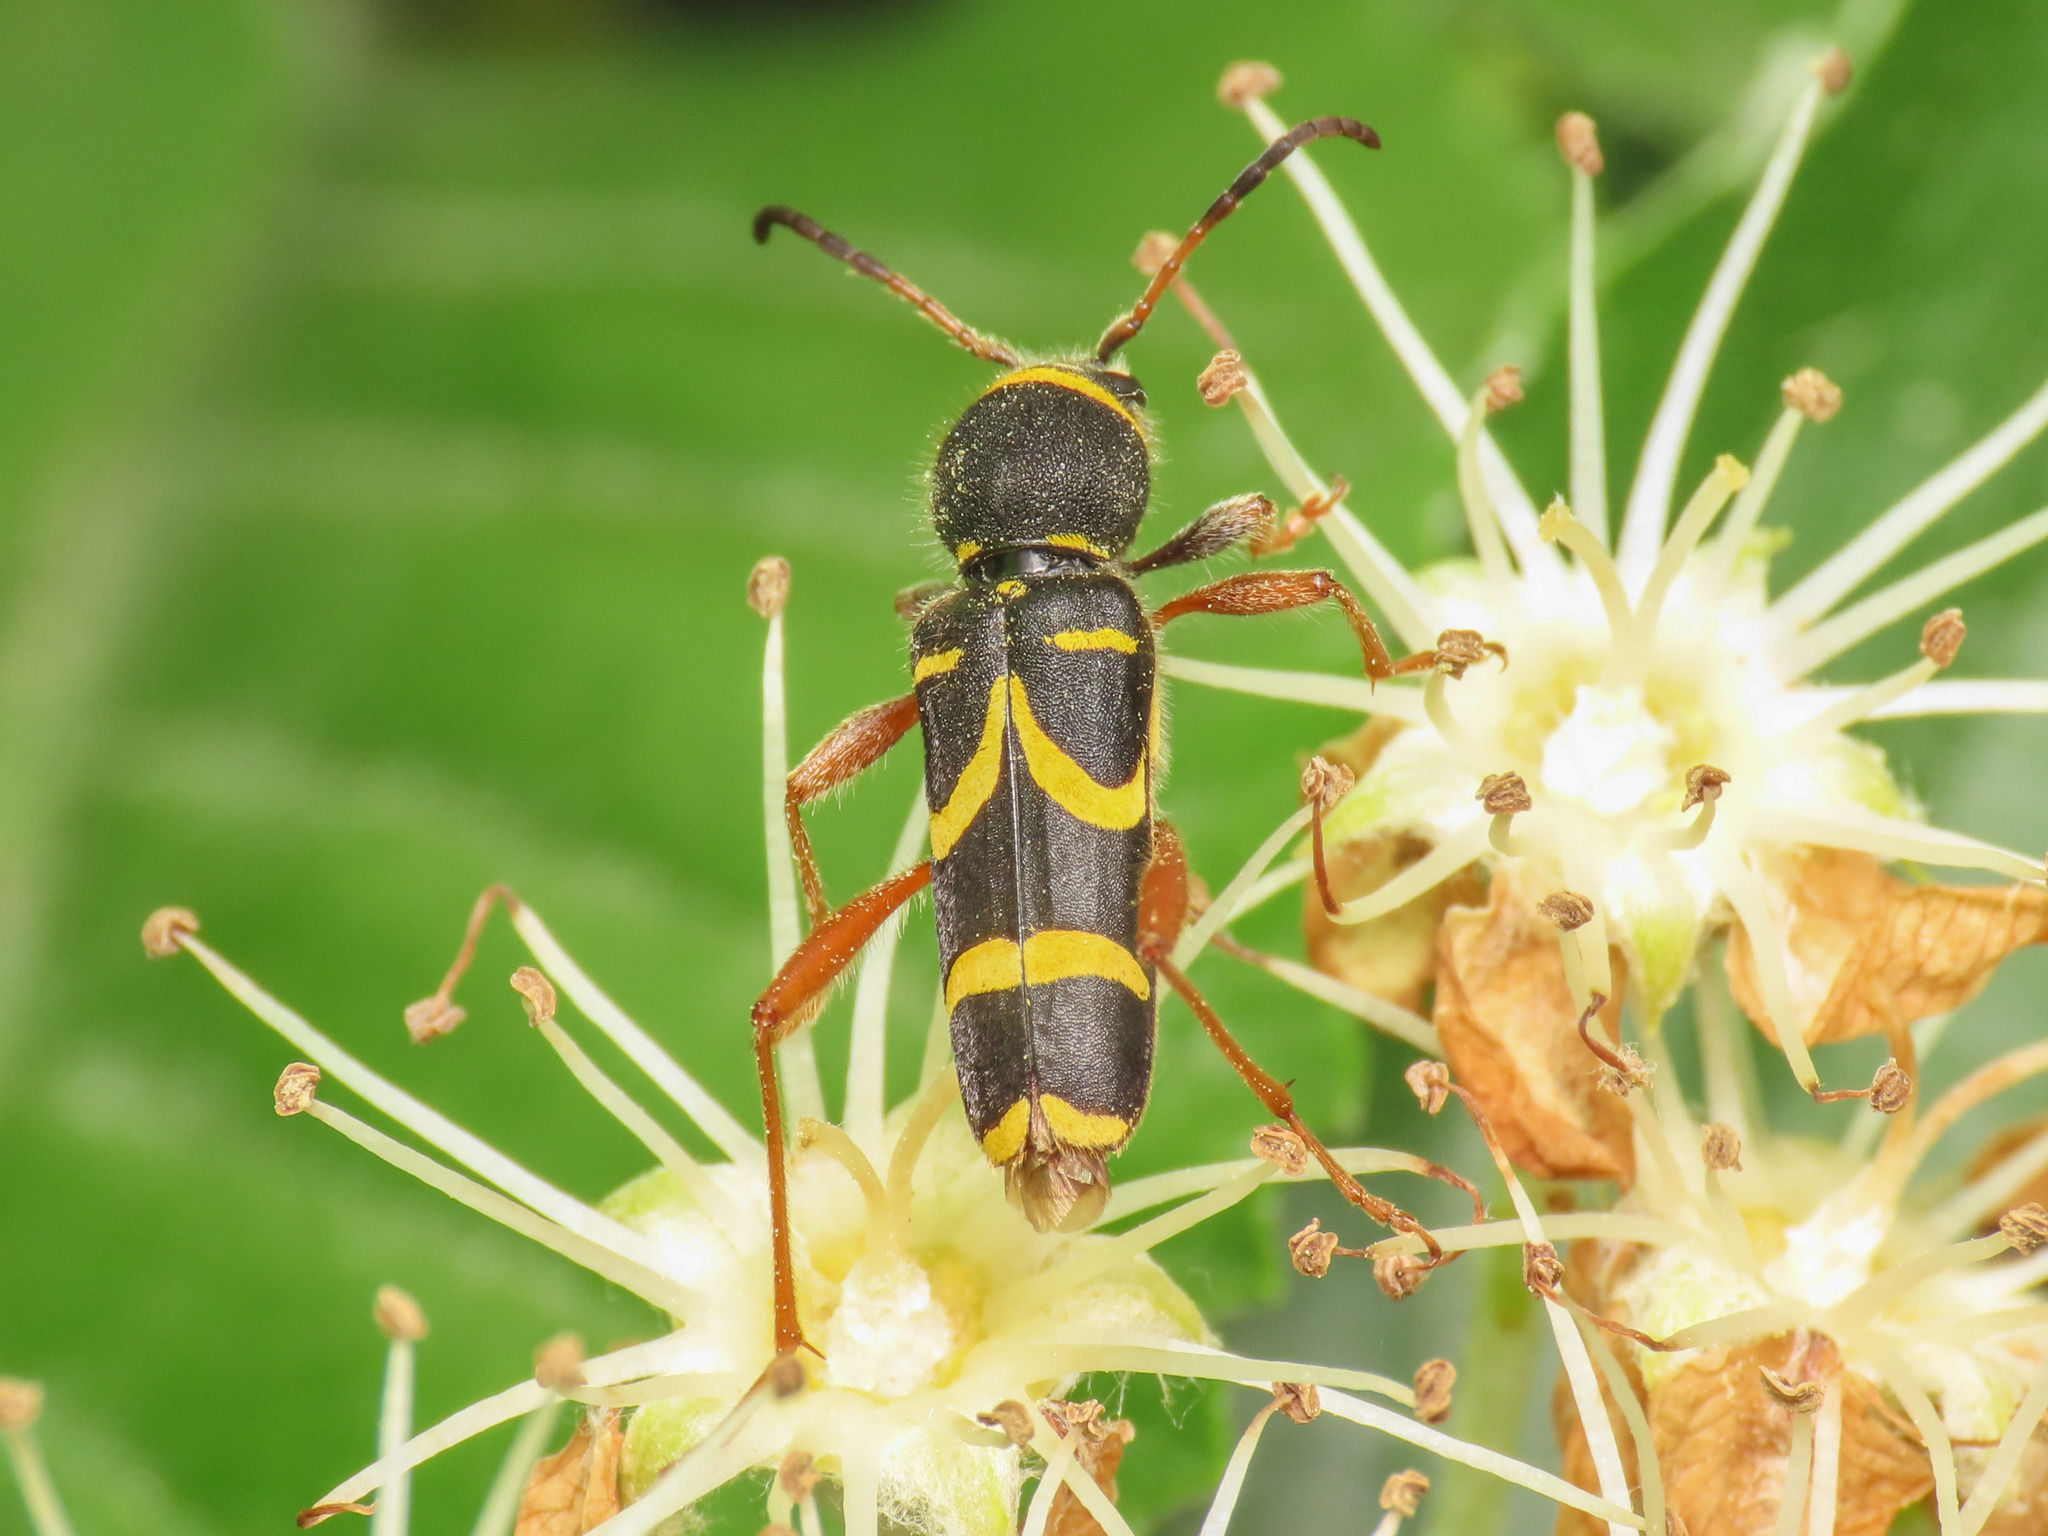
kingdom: Animalia
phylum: Arthropoda
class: Insecta
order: Coleoptera
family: Cerambycidae
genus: Clytus
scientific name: Clytus arietis
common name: Wasp beetle
